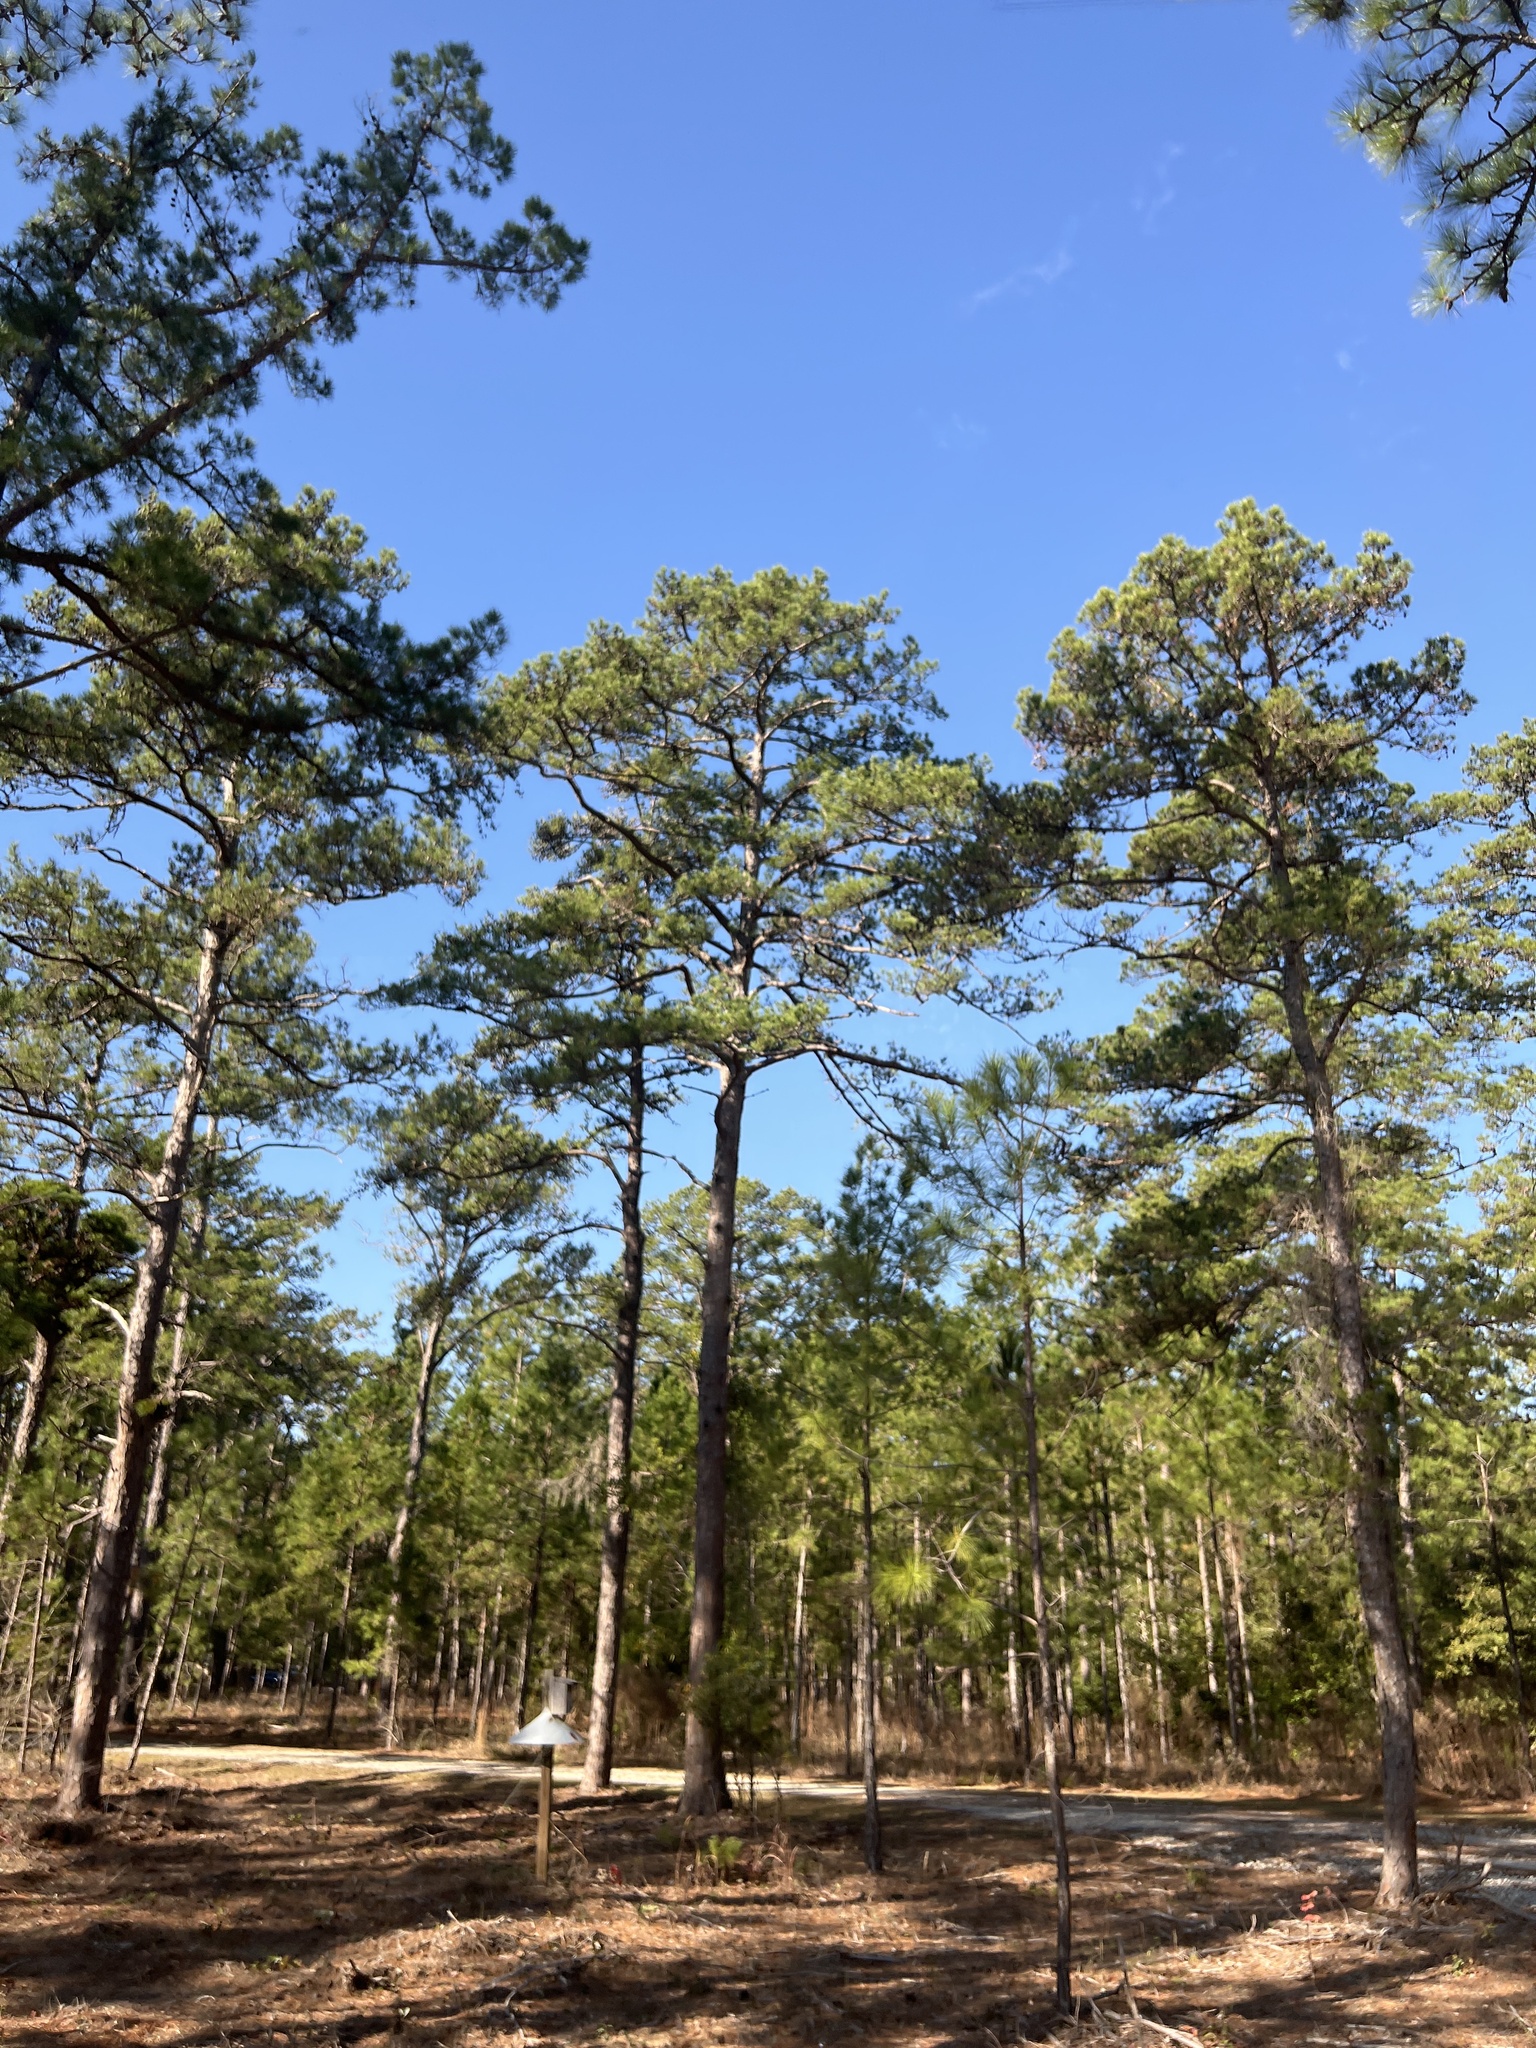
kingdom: Plantae
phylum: Tracheophyta
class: Pinopsida
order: Pinales
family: Pinaceae
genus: Pinus
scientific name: Pinus echinata
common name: Shortleaf pine
